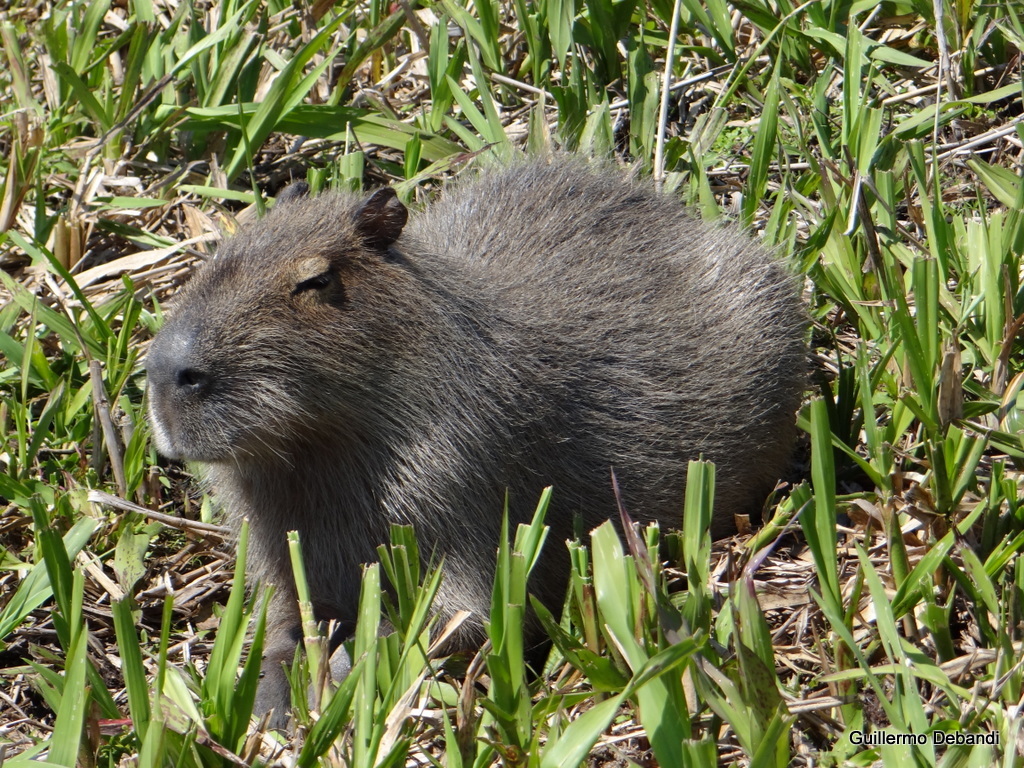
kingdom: Animalia
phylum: Chordata
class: Mammalia
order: Rodentia
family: Caviidae
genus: Hydrochoerus
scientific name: Hydrochoerus hydrochaeris
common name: Capybara
